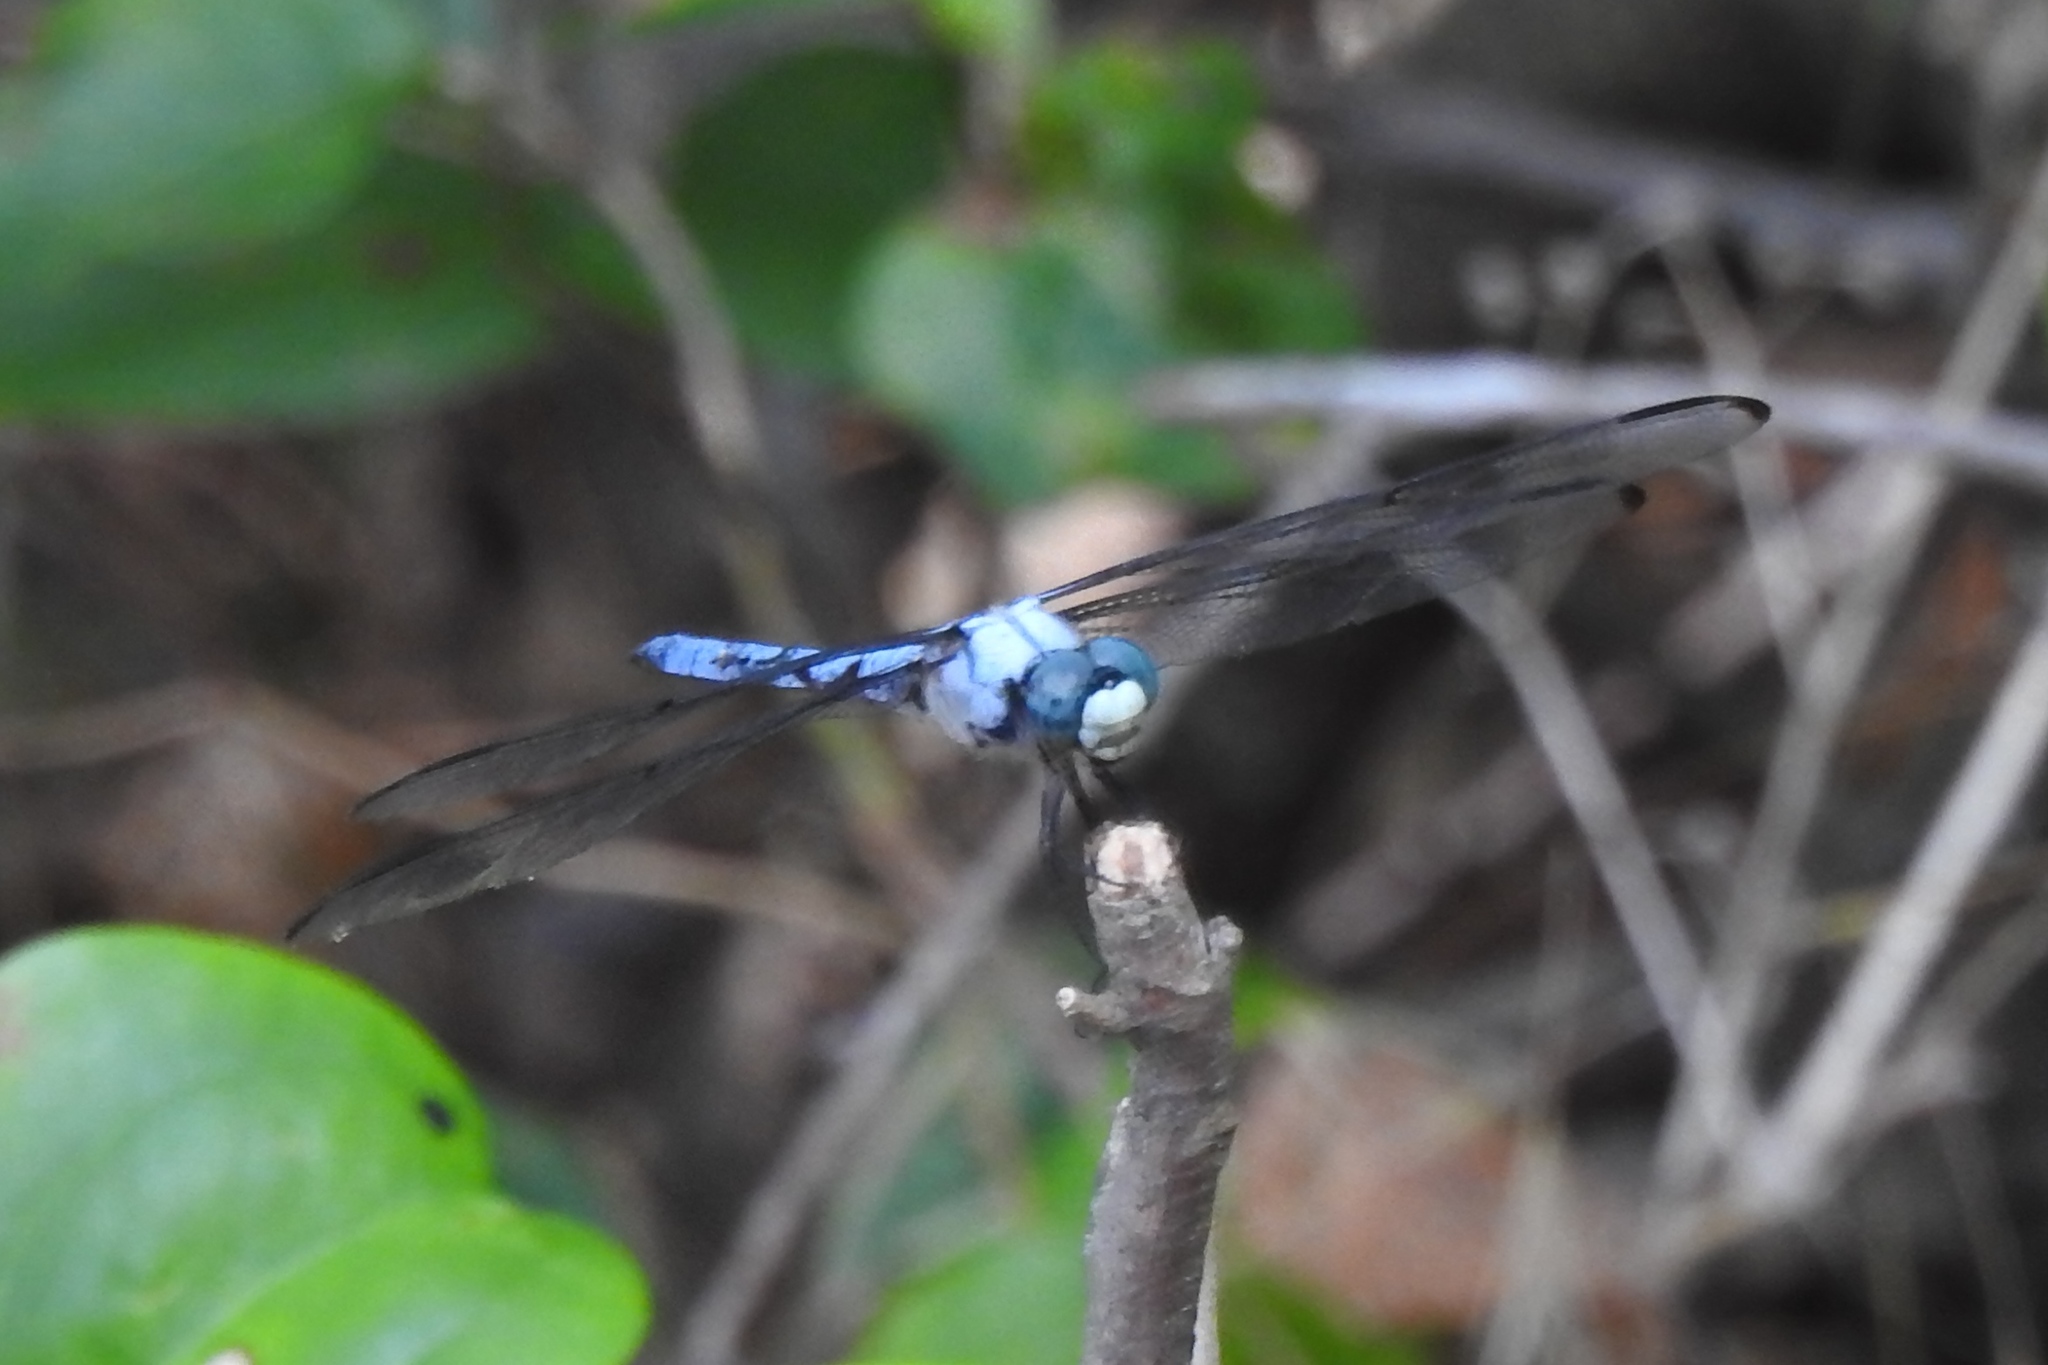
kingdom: Animalia
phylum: Arthropoda
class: Insecta
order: Odonata
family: Libellulidae
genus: Libellula
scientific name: Libellula vibrans
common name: Great blue skimmer
